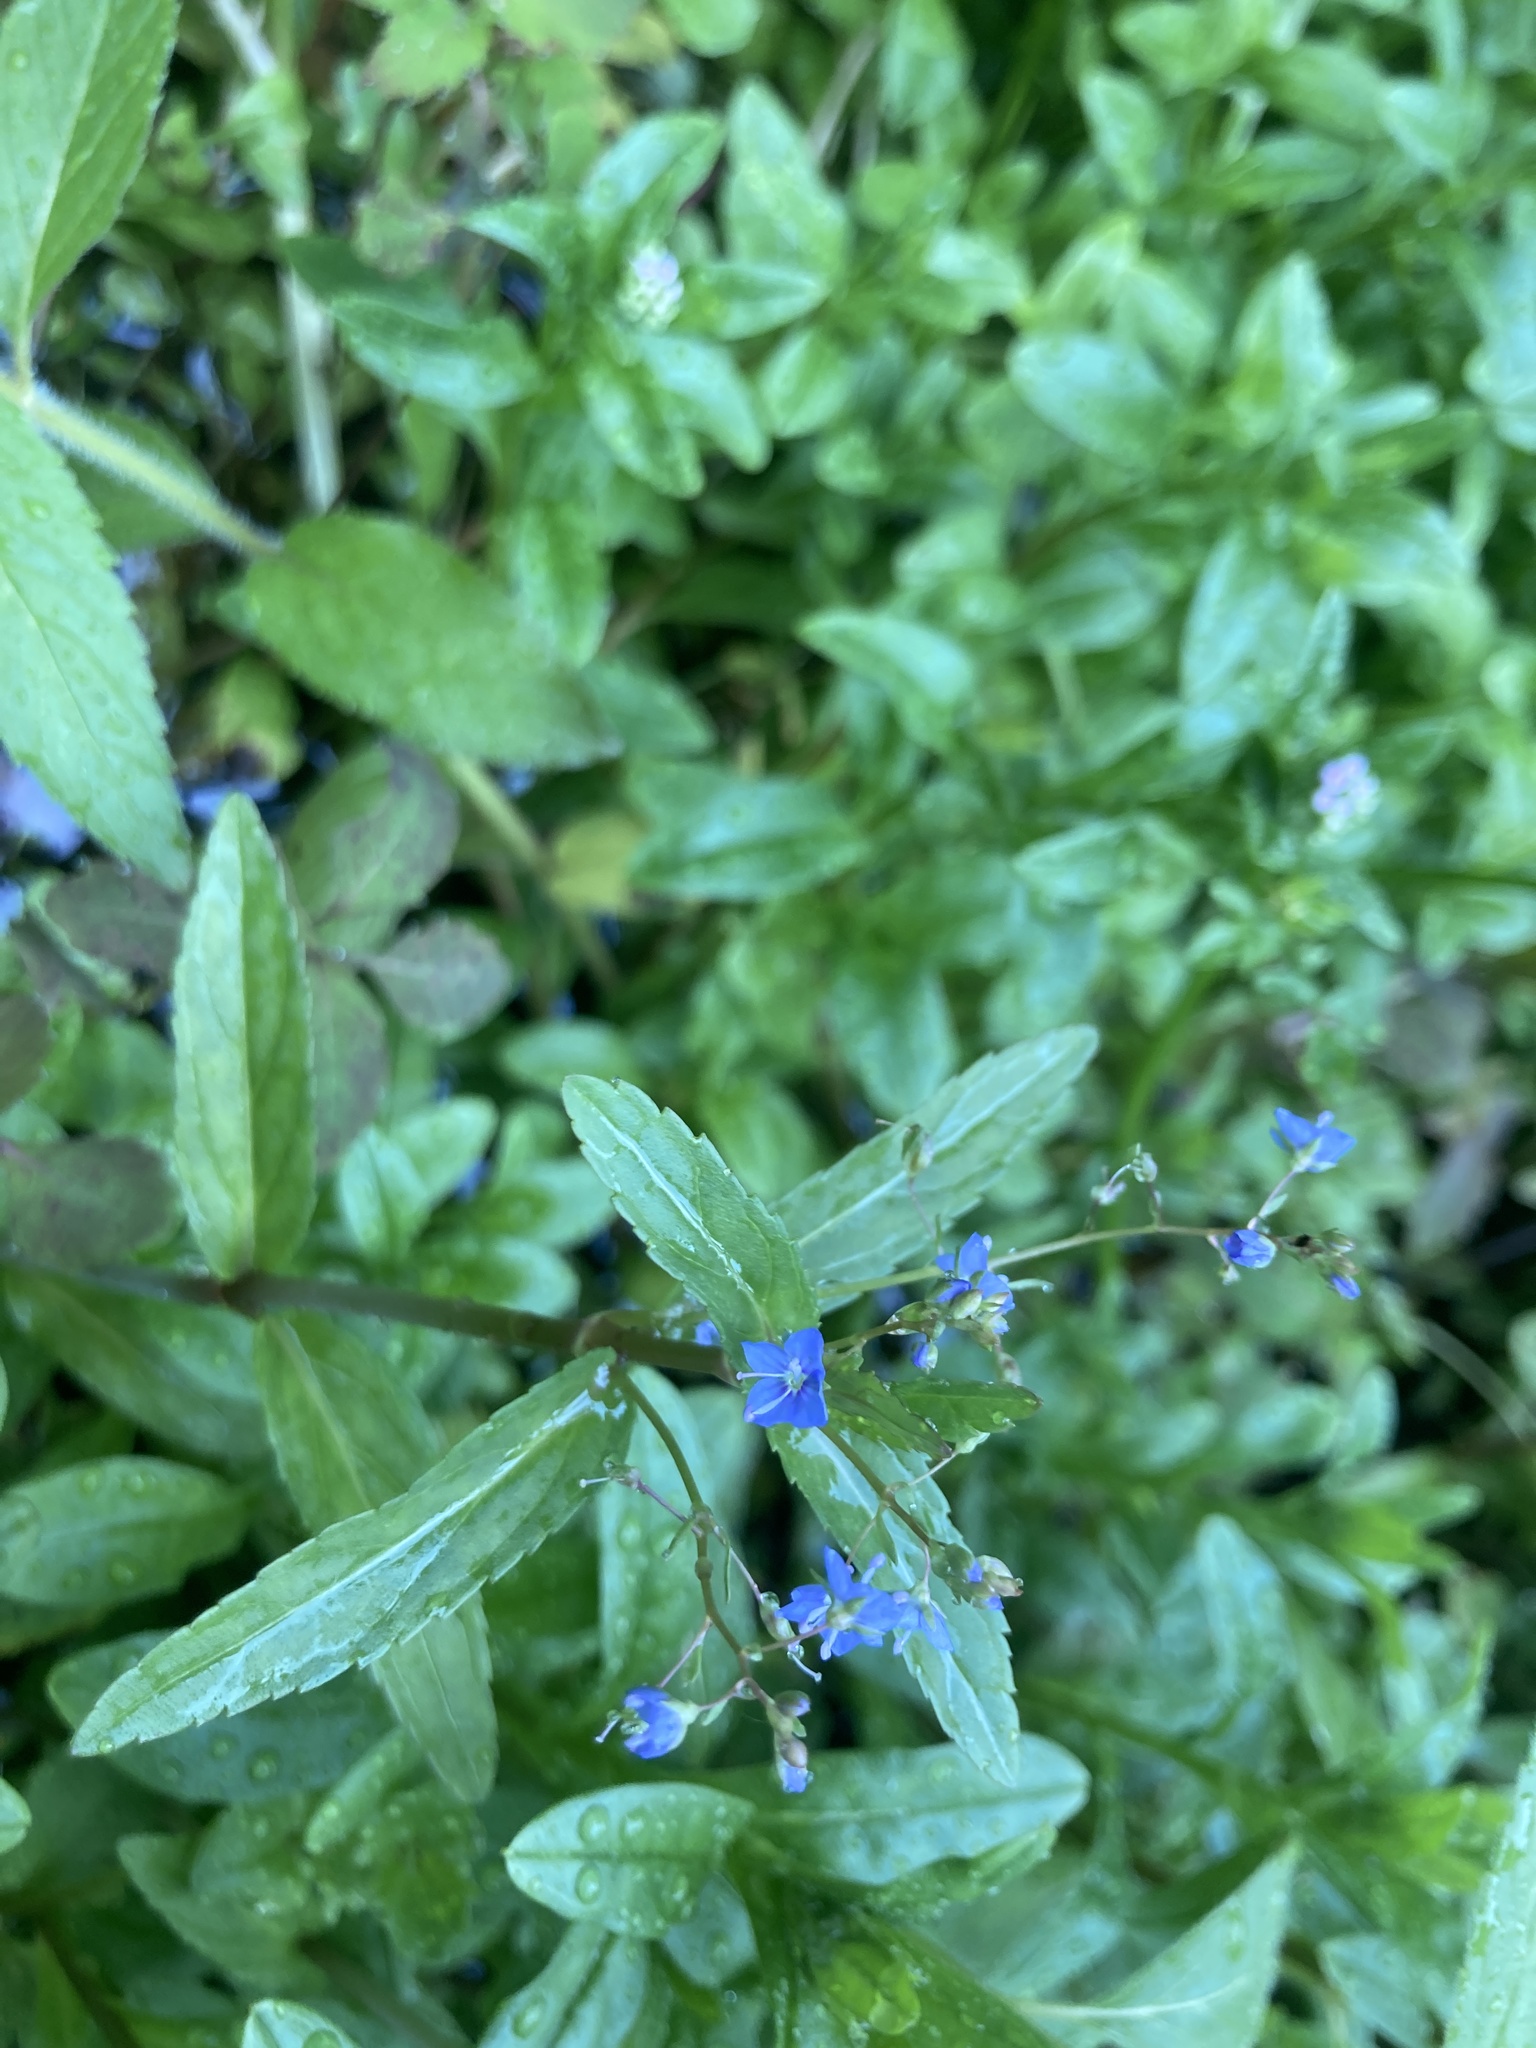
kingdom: Plantae
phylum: Tracheophyta
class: Magnoliopsida
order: Lamiales
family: Plantaginaceae
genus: Veronica
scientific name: Veronica americana
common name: American brooklime
